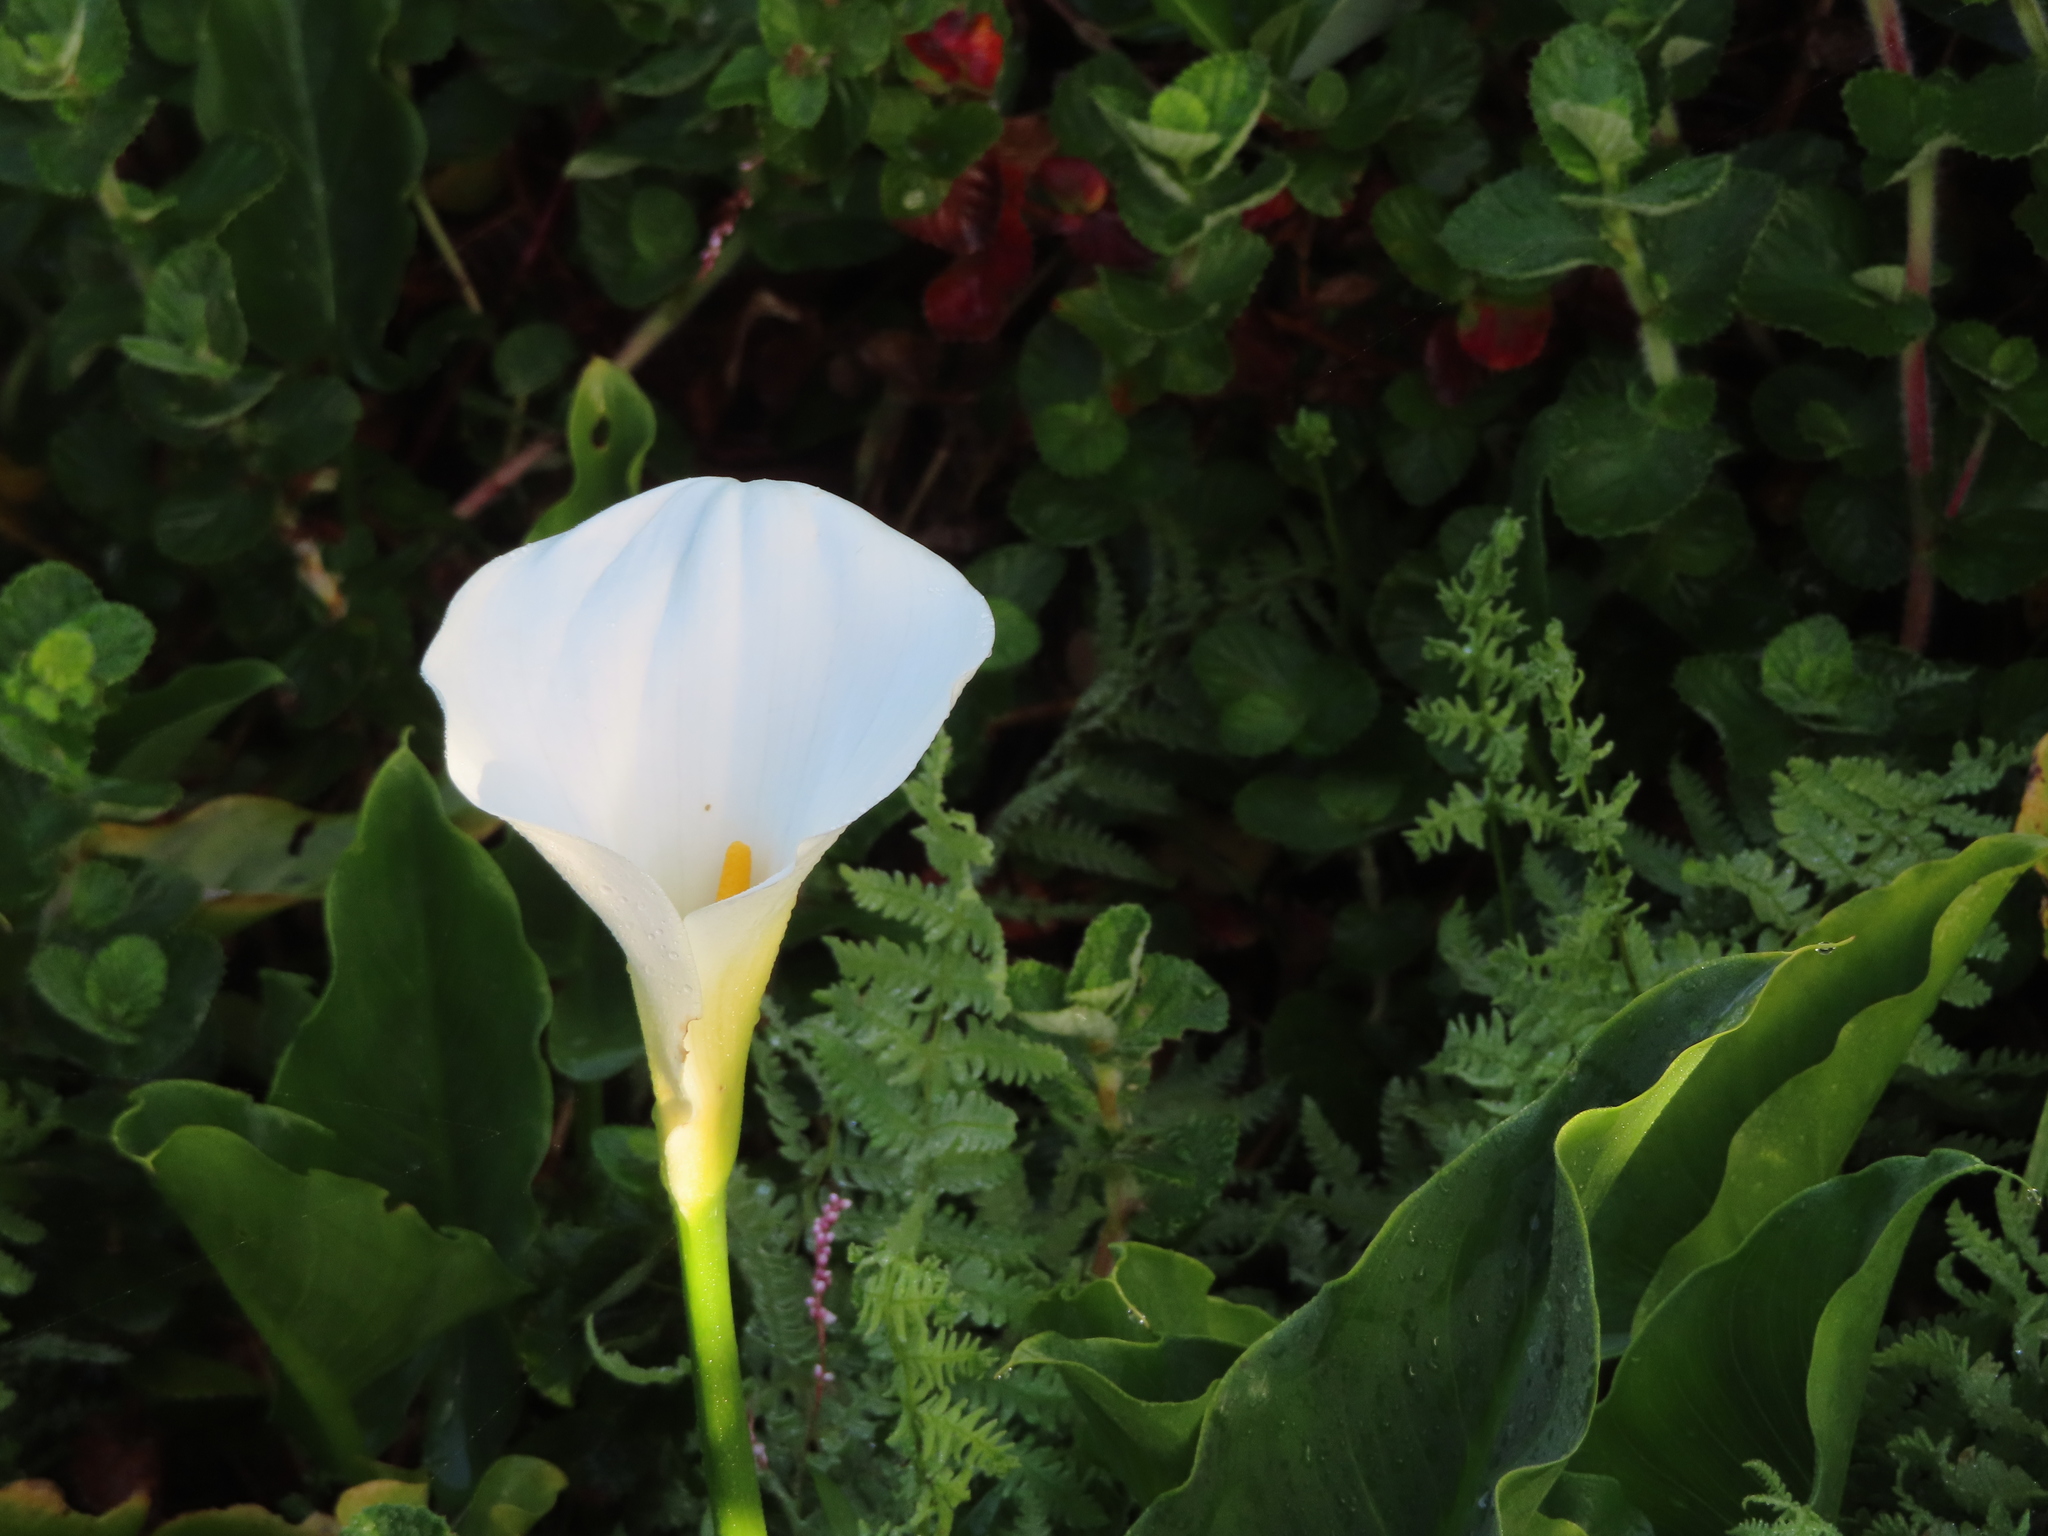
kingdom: Plantae
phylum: Tracheophyta
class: Liliopsida
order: Alismatales
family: Araceae
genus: Zantedeschia
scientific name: Zantedeschia aethiopica
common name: Altar-lily
